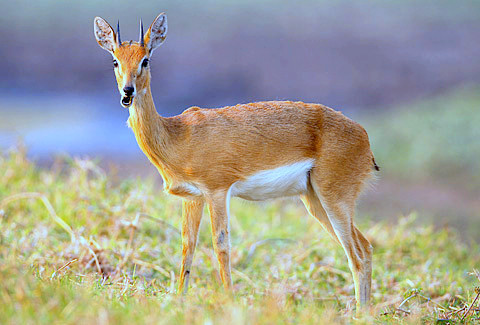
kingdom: Animalia
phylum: Chordata
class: Mammalia
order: Artiodactyla
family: Bovidae
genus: Ourebia
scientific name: Ourebia ourebi
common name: Oribi
